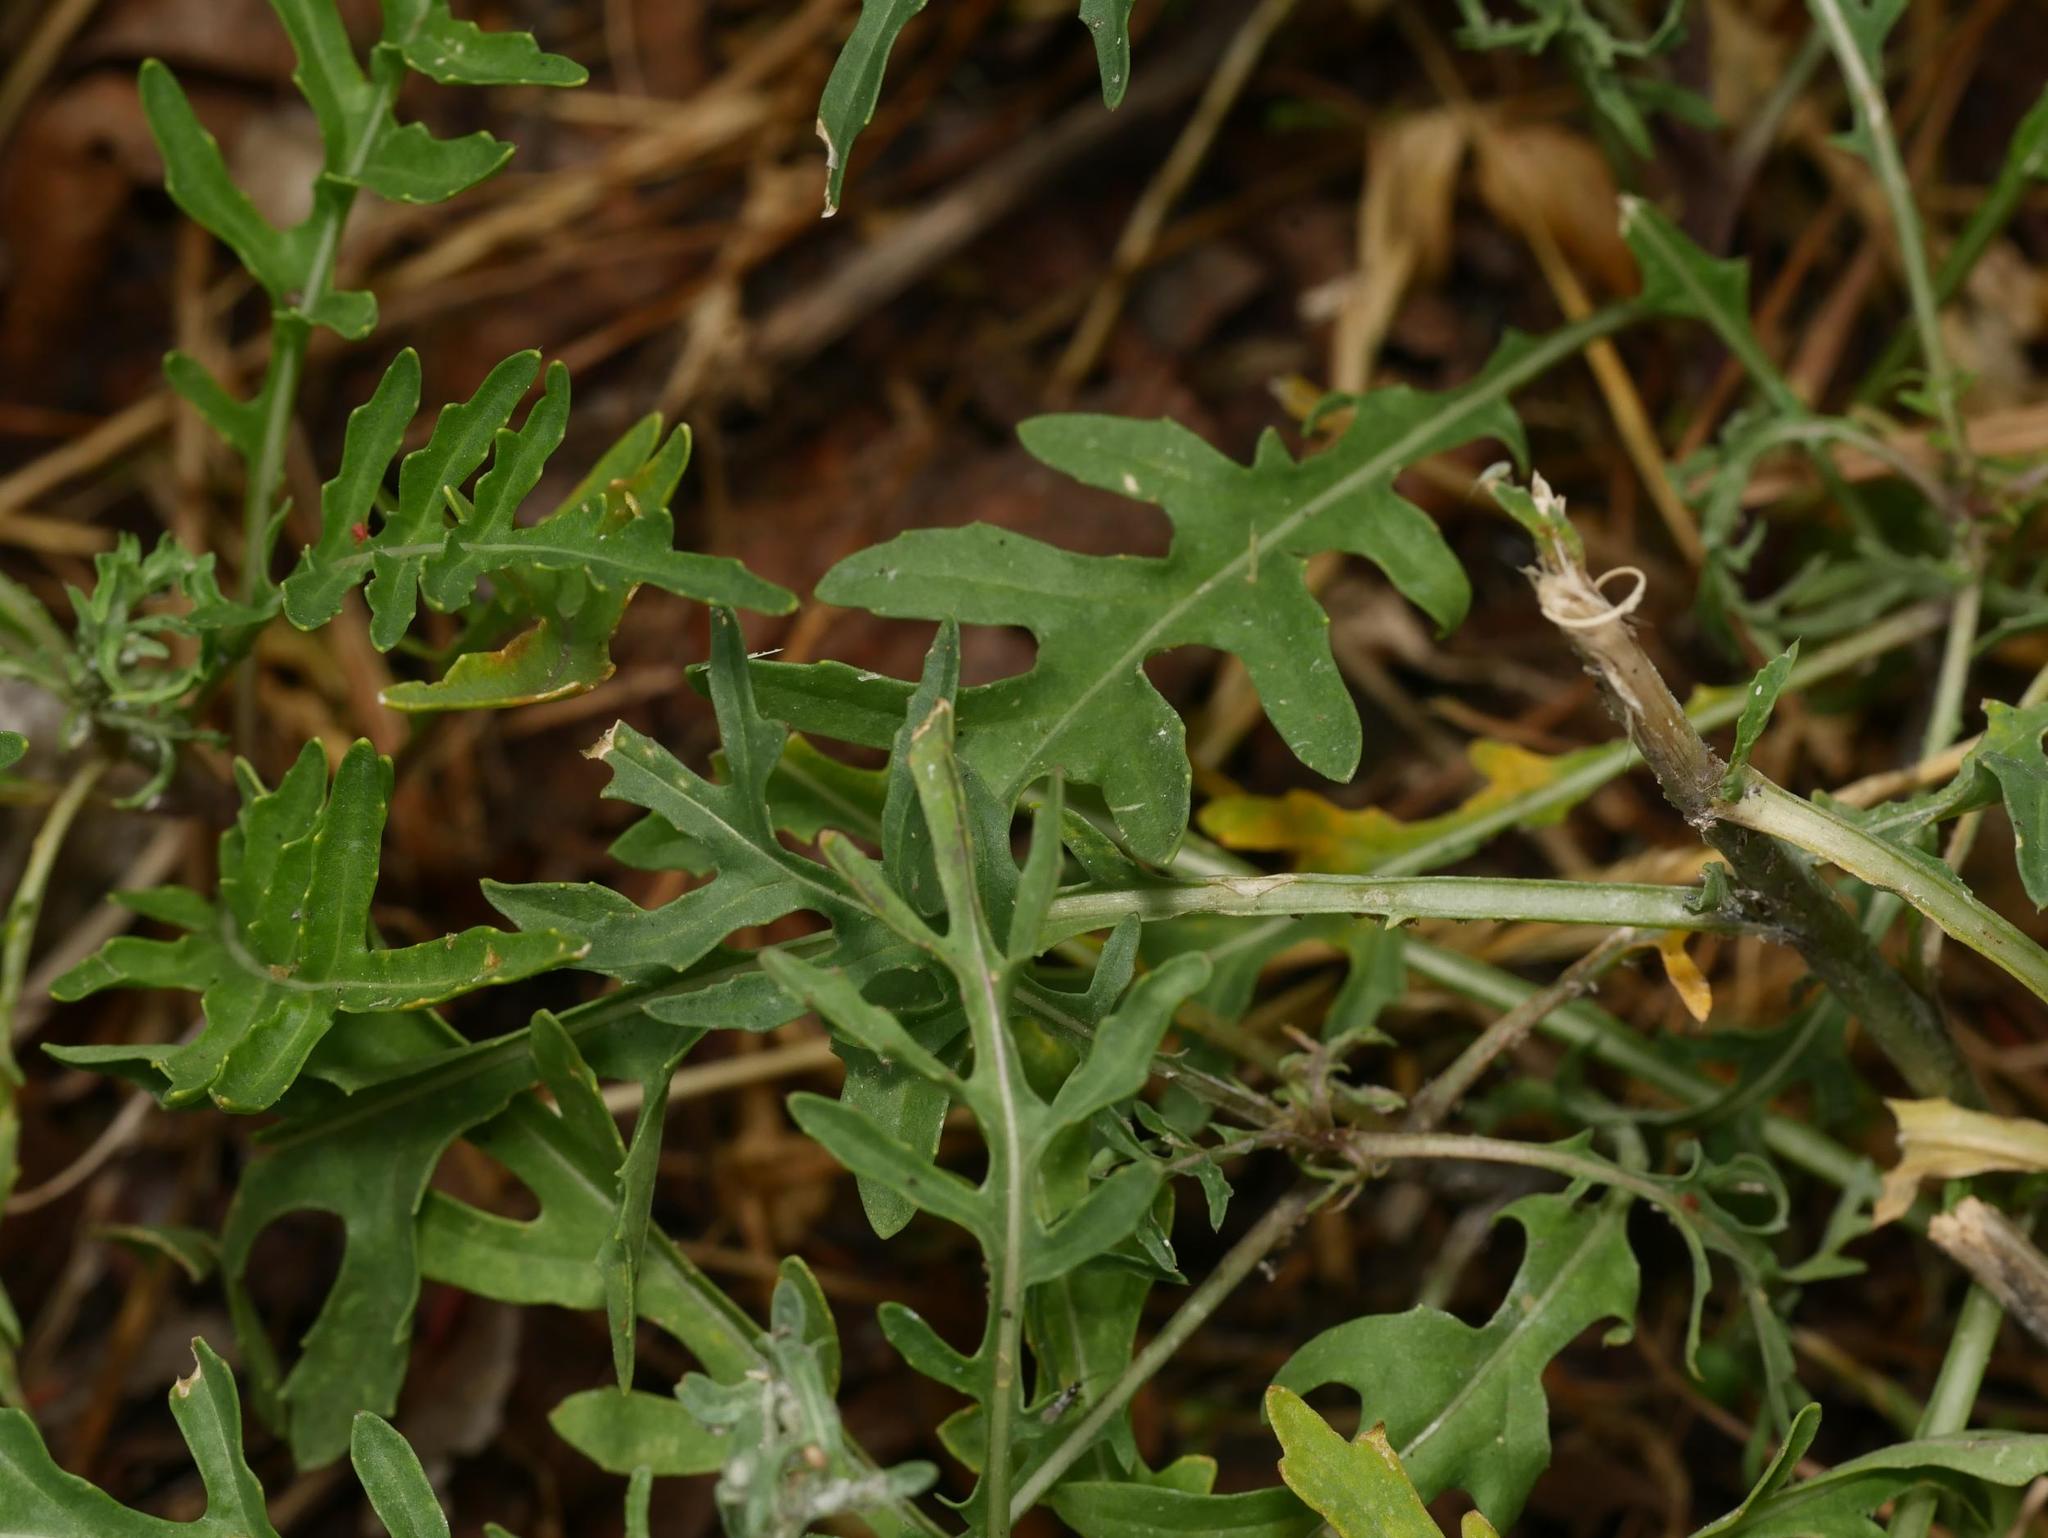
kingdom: Plantae
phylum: Tracheophyta
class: Magnoliopsida
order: Brassicales
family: Brassicaceae
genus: Diplotaxis
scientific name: Diplotaxis tenuifolia
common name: Perennial wall-rocket
